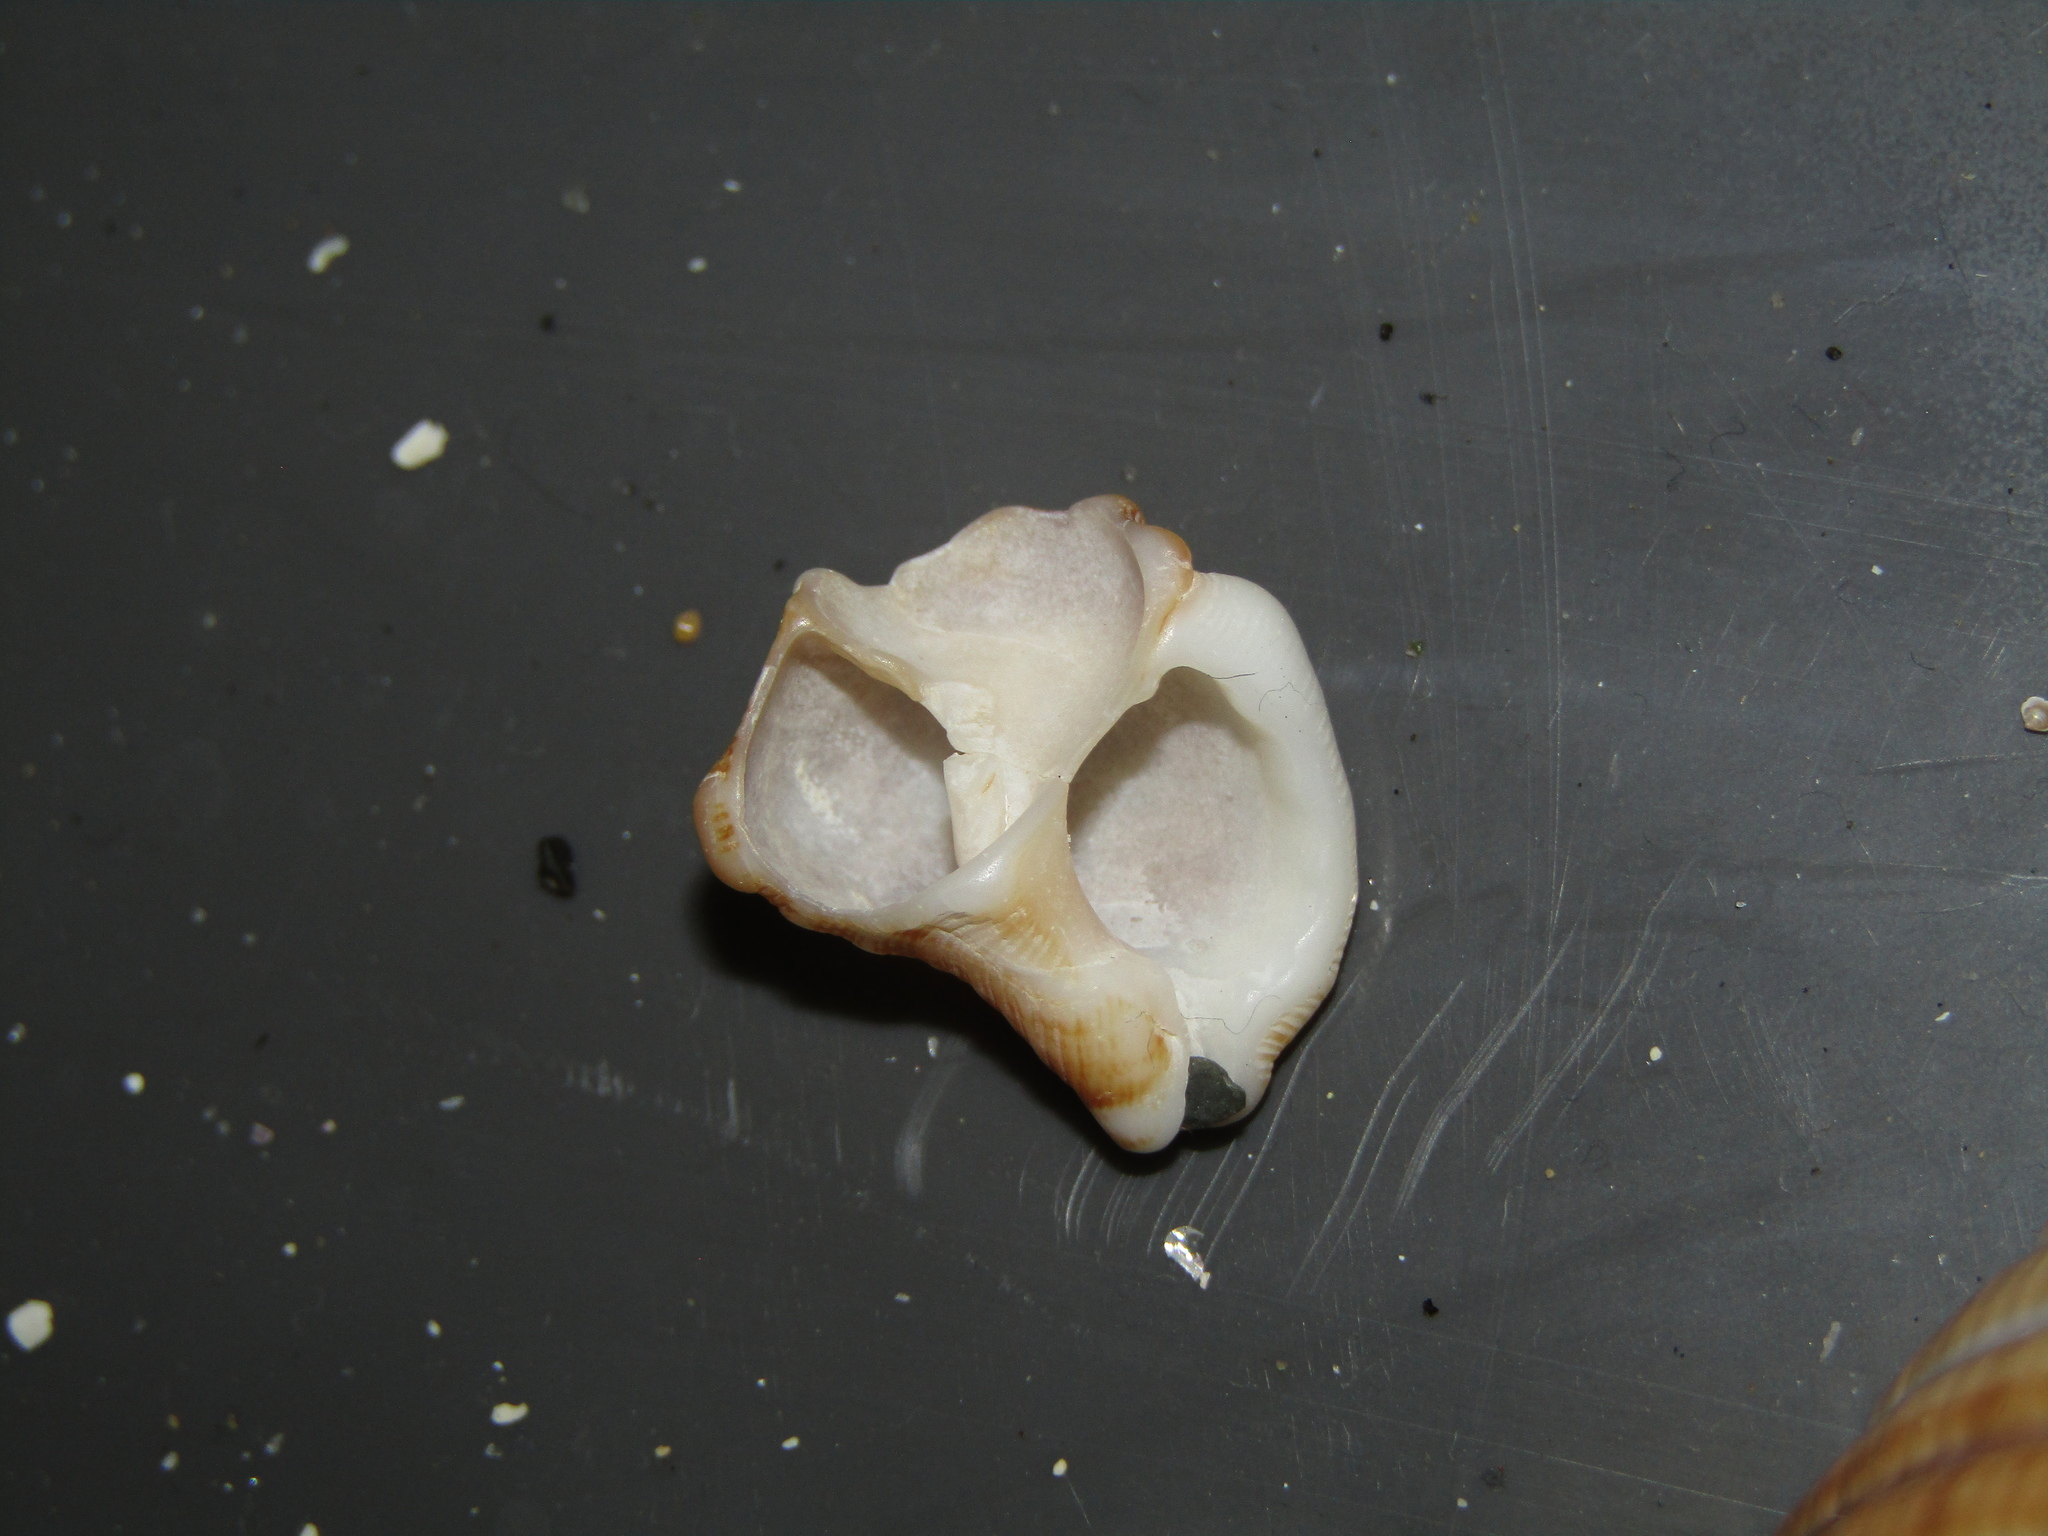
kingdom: Animalia
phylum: Mollusca
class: Gastropoda
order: Littorinimorpha
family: Cymatiidae
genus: Austrosassia
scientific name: Austrosassia parkinsonia
